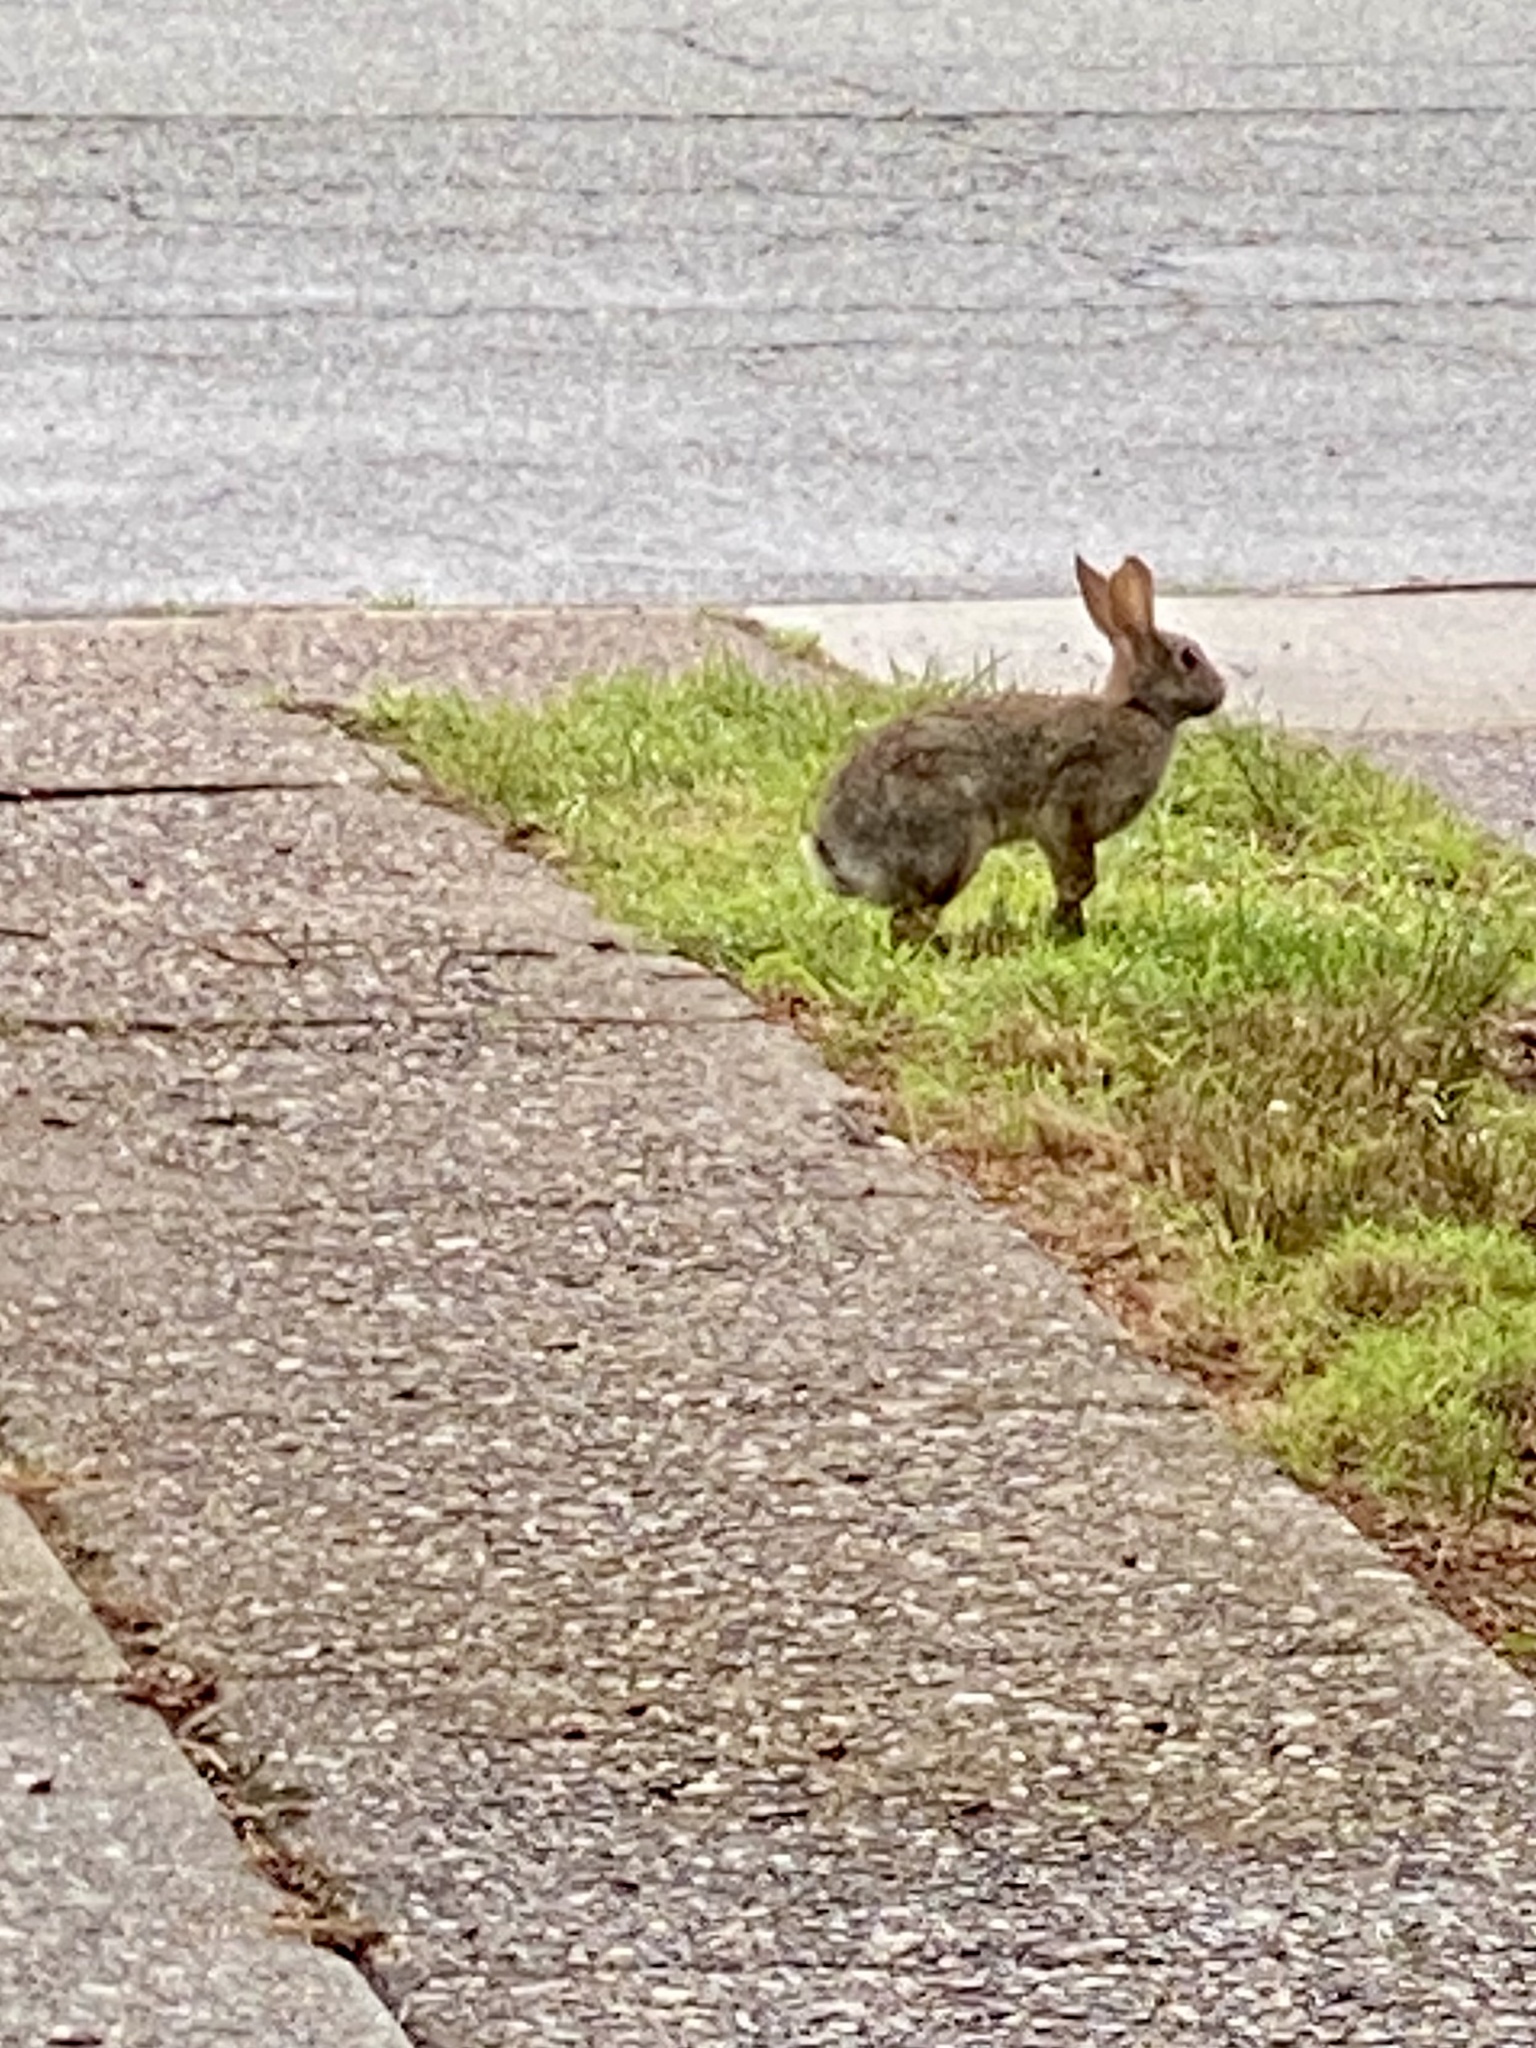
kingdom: Animalia
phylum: Chordata
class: Mammalia
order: Lagomorpha
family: Leporidae
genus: Sylvilagus
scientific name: Sylvilagus floridanus
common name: Eastern cottontail
